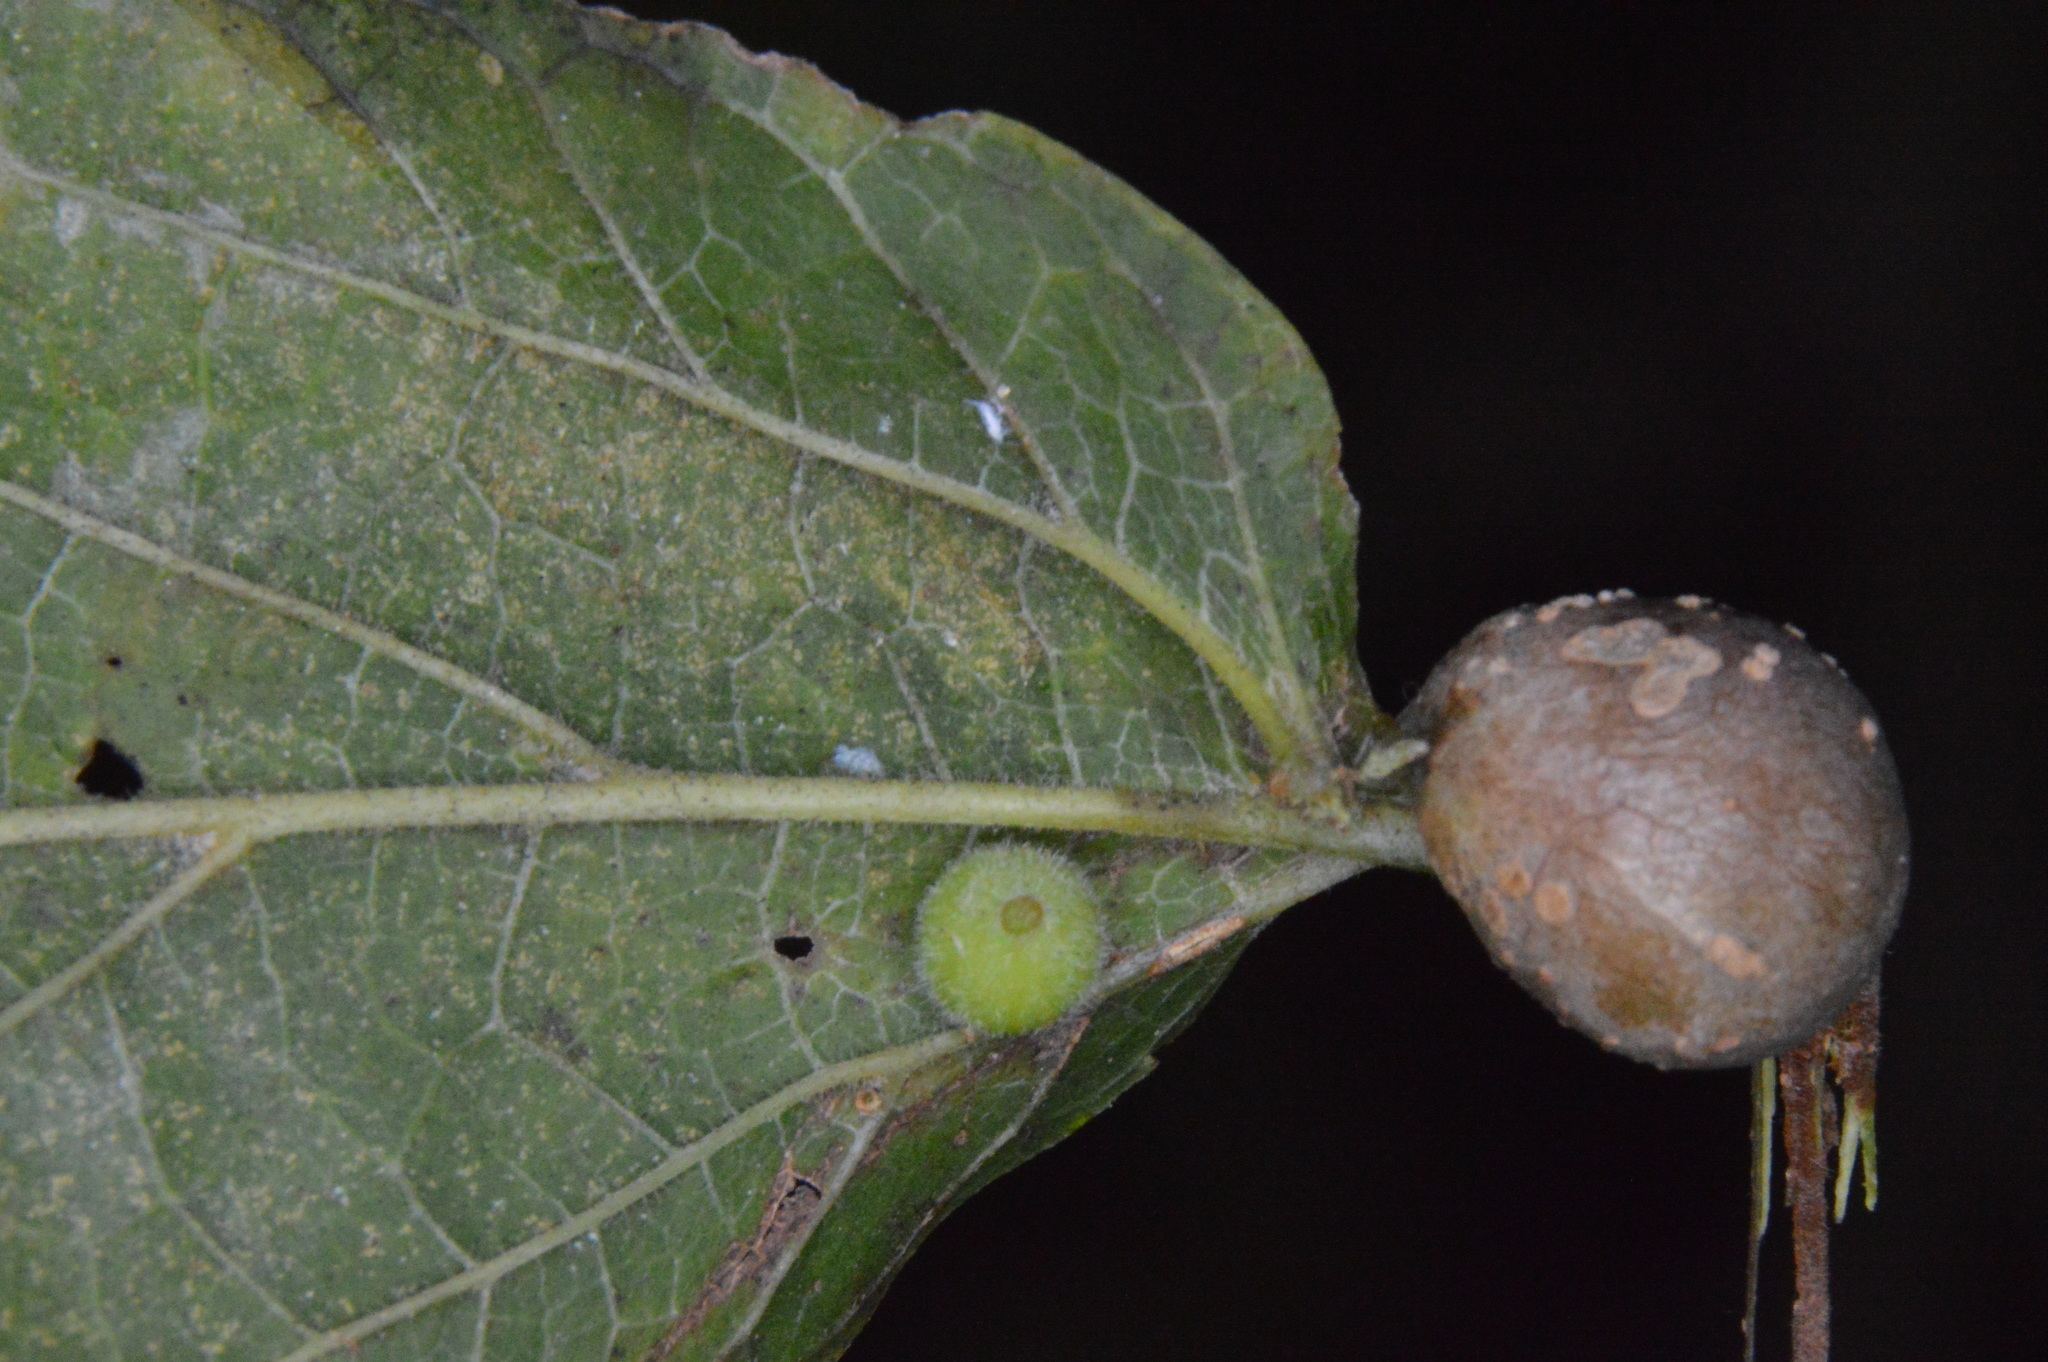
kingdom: Animalia
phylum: Arthropoda
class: Insecta
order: Diptera
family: Cecidomyiidae
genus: Celticecis
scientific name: Celticecis globosa
